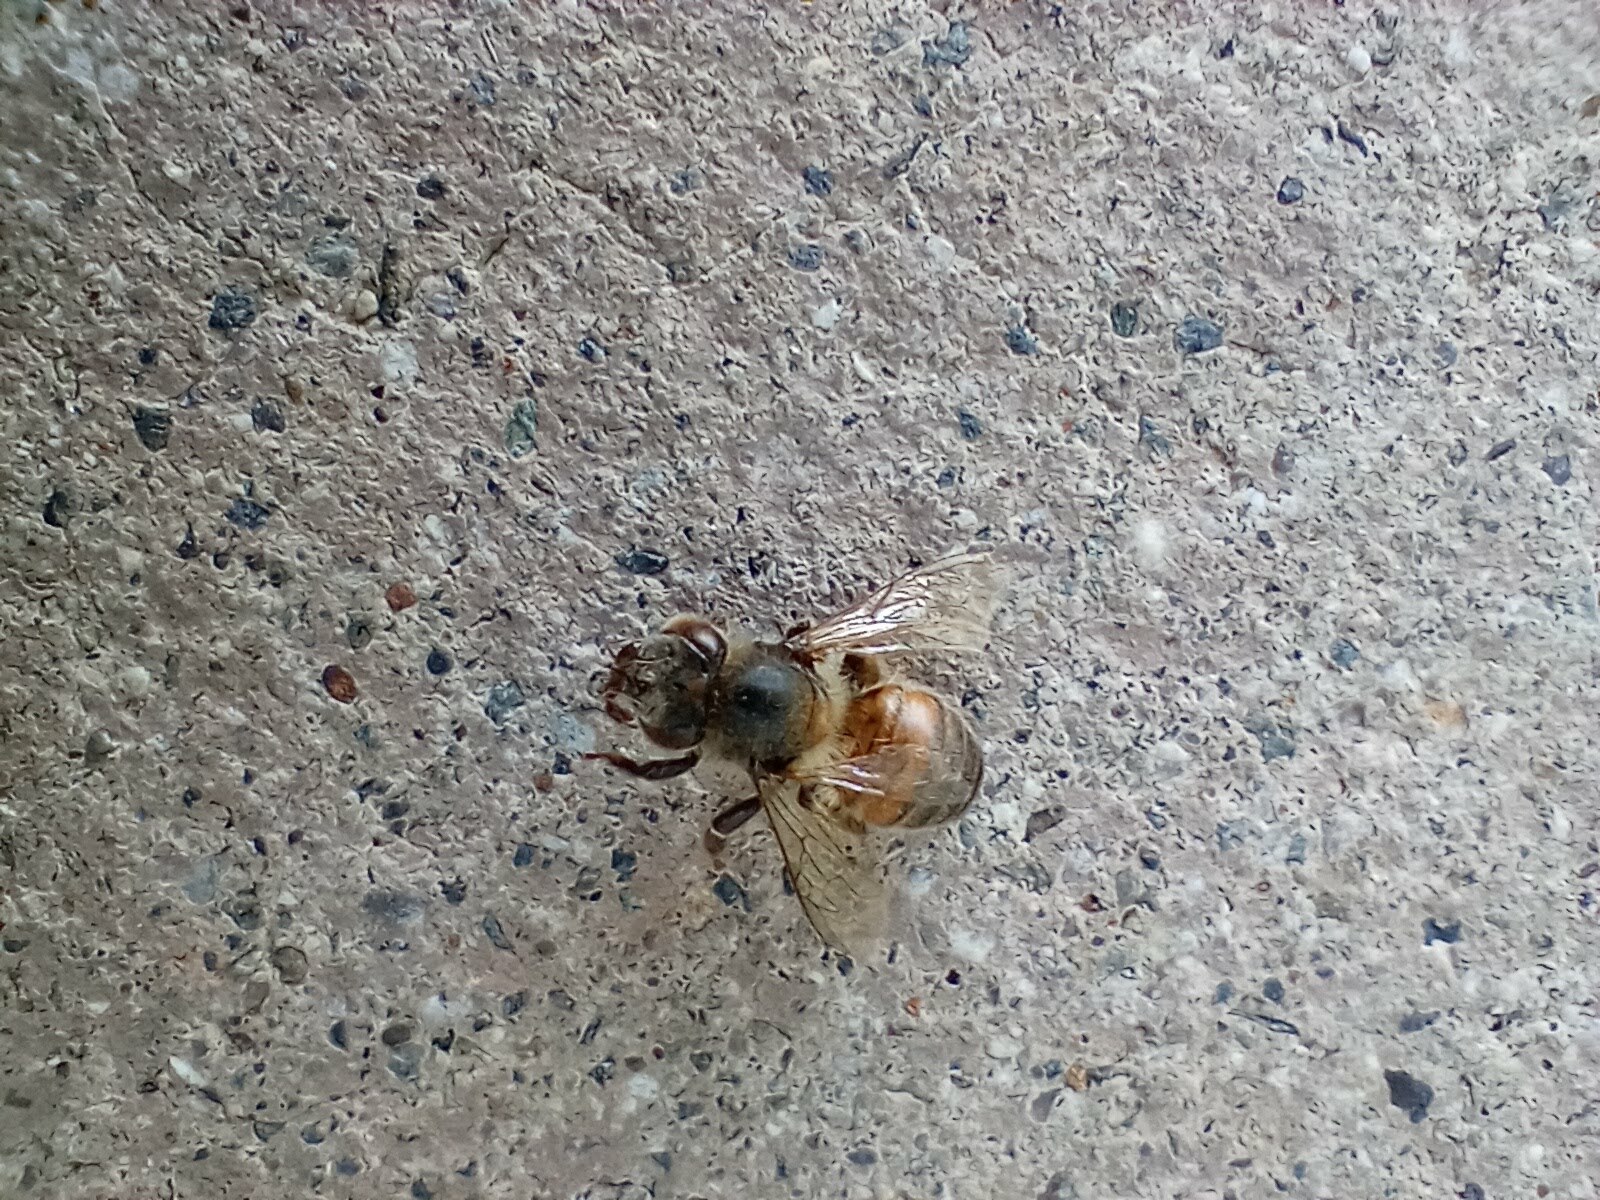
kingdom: Animalia
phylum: Arthropoda
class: Insecta
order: Hymenoptera
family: Apidae
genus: Apis
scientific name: Apis mellifera
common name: Honey bee
